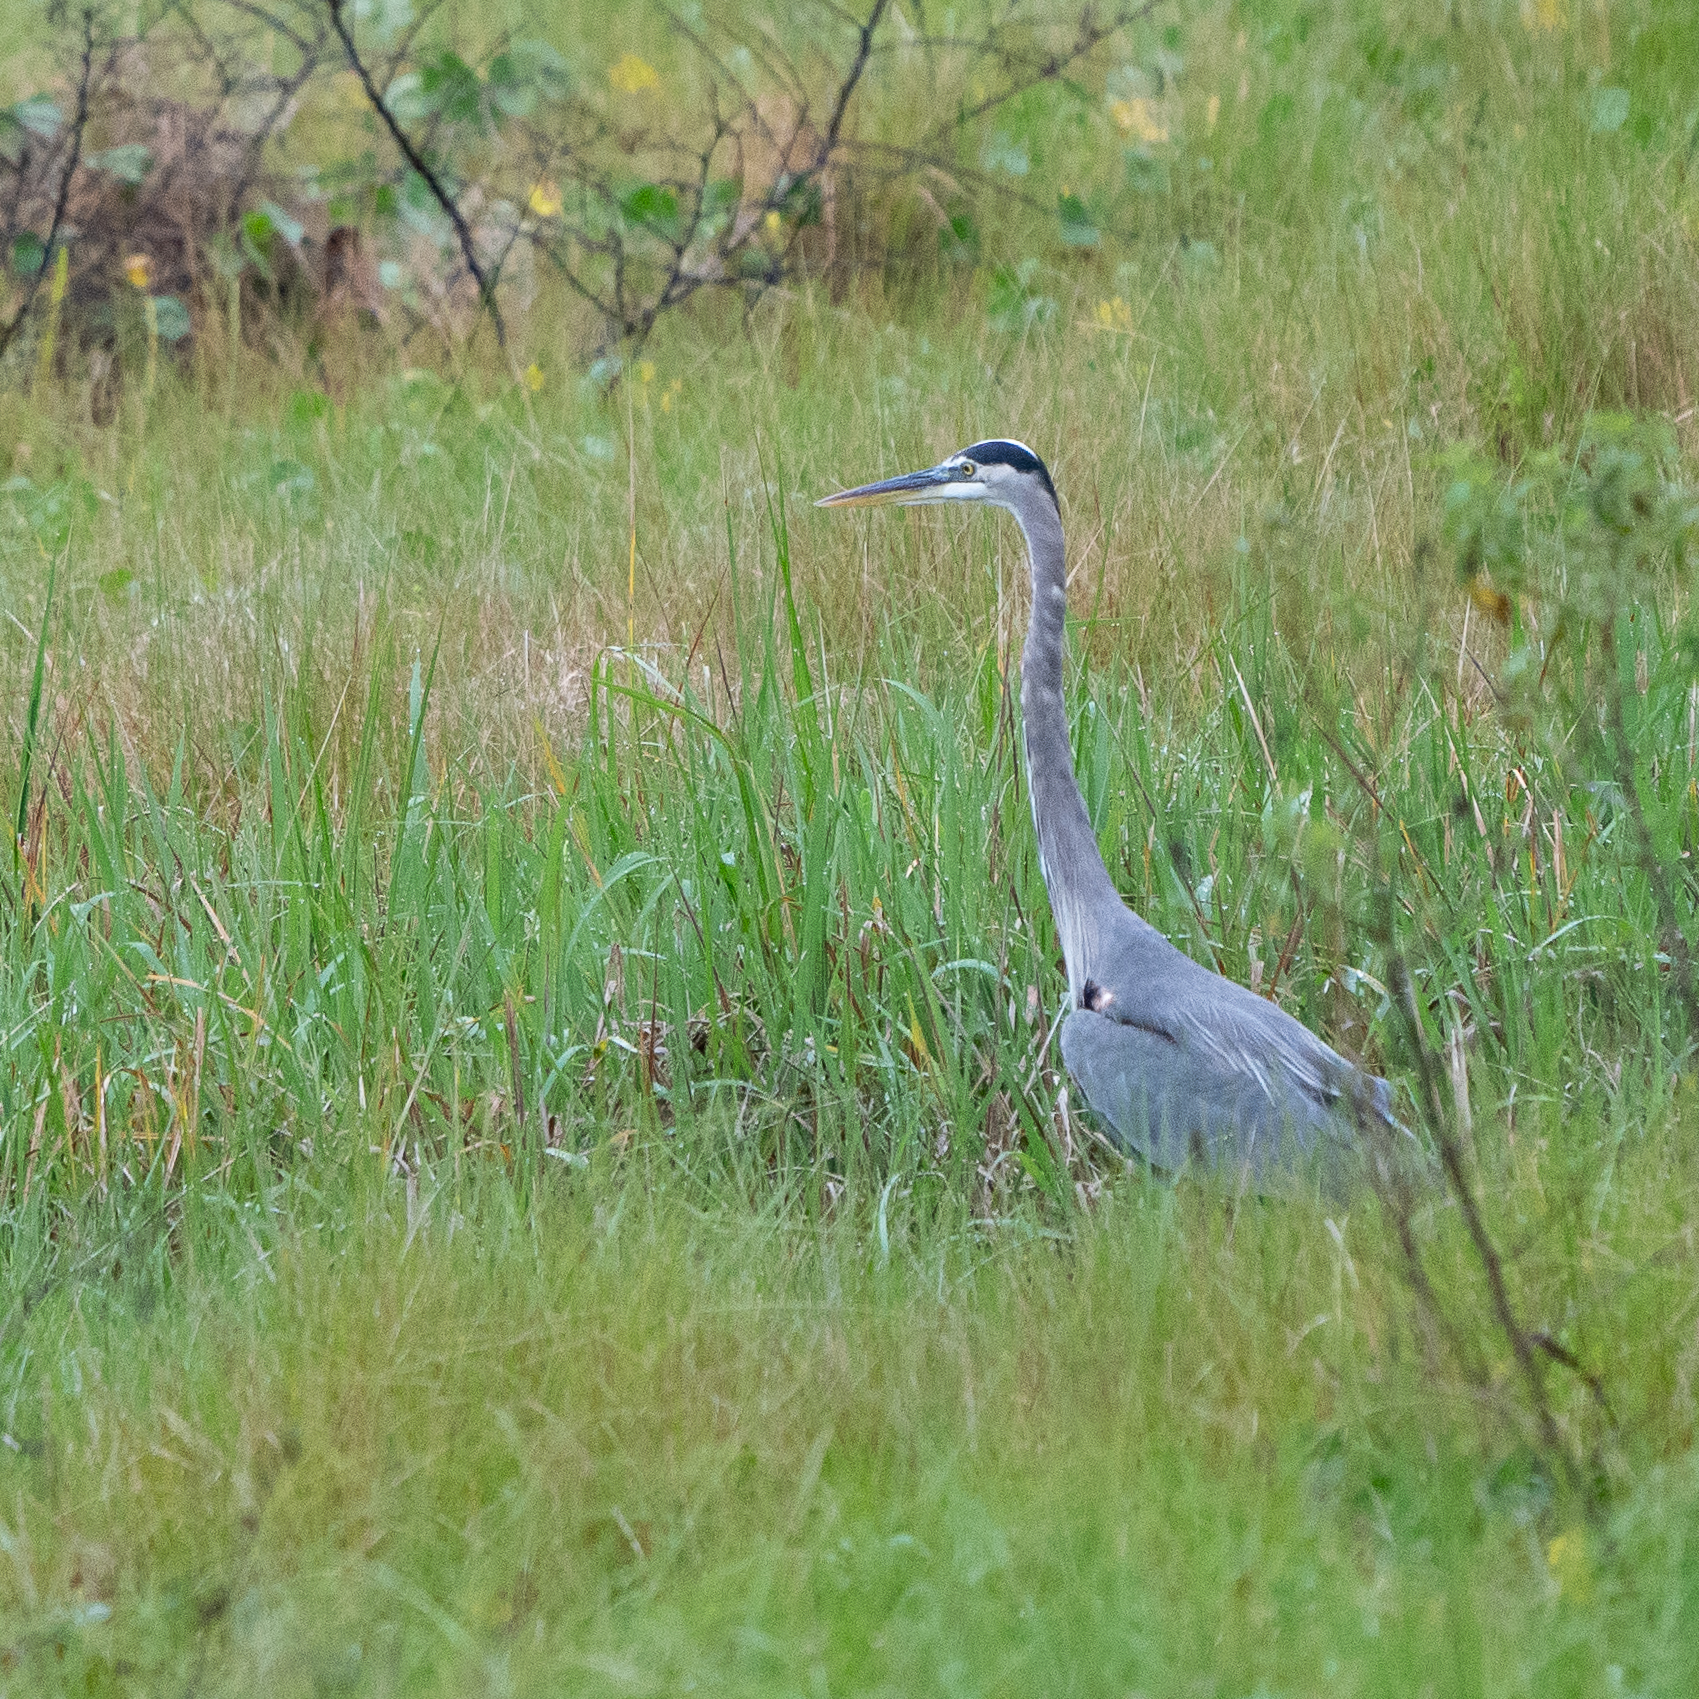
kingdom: Animalia
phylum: Chordata
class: Aves
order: Pelecaniformes
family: Ardeidae
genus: Ardea
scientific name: Ardea herodias
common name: Great blue heron
